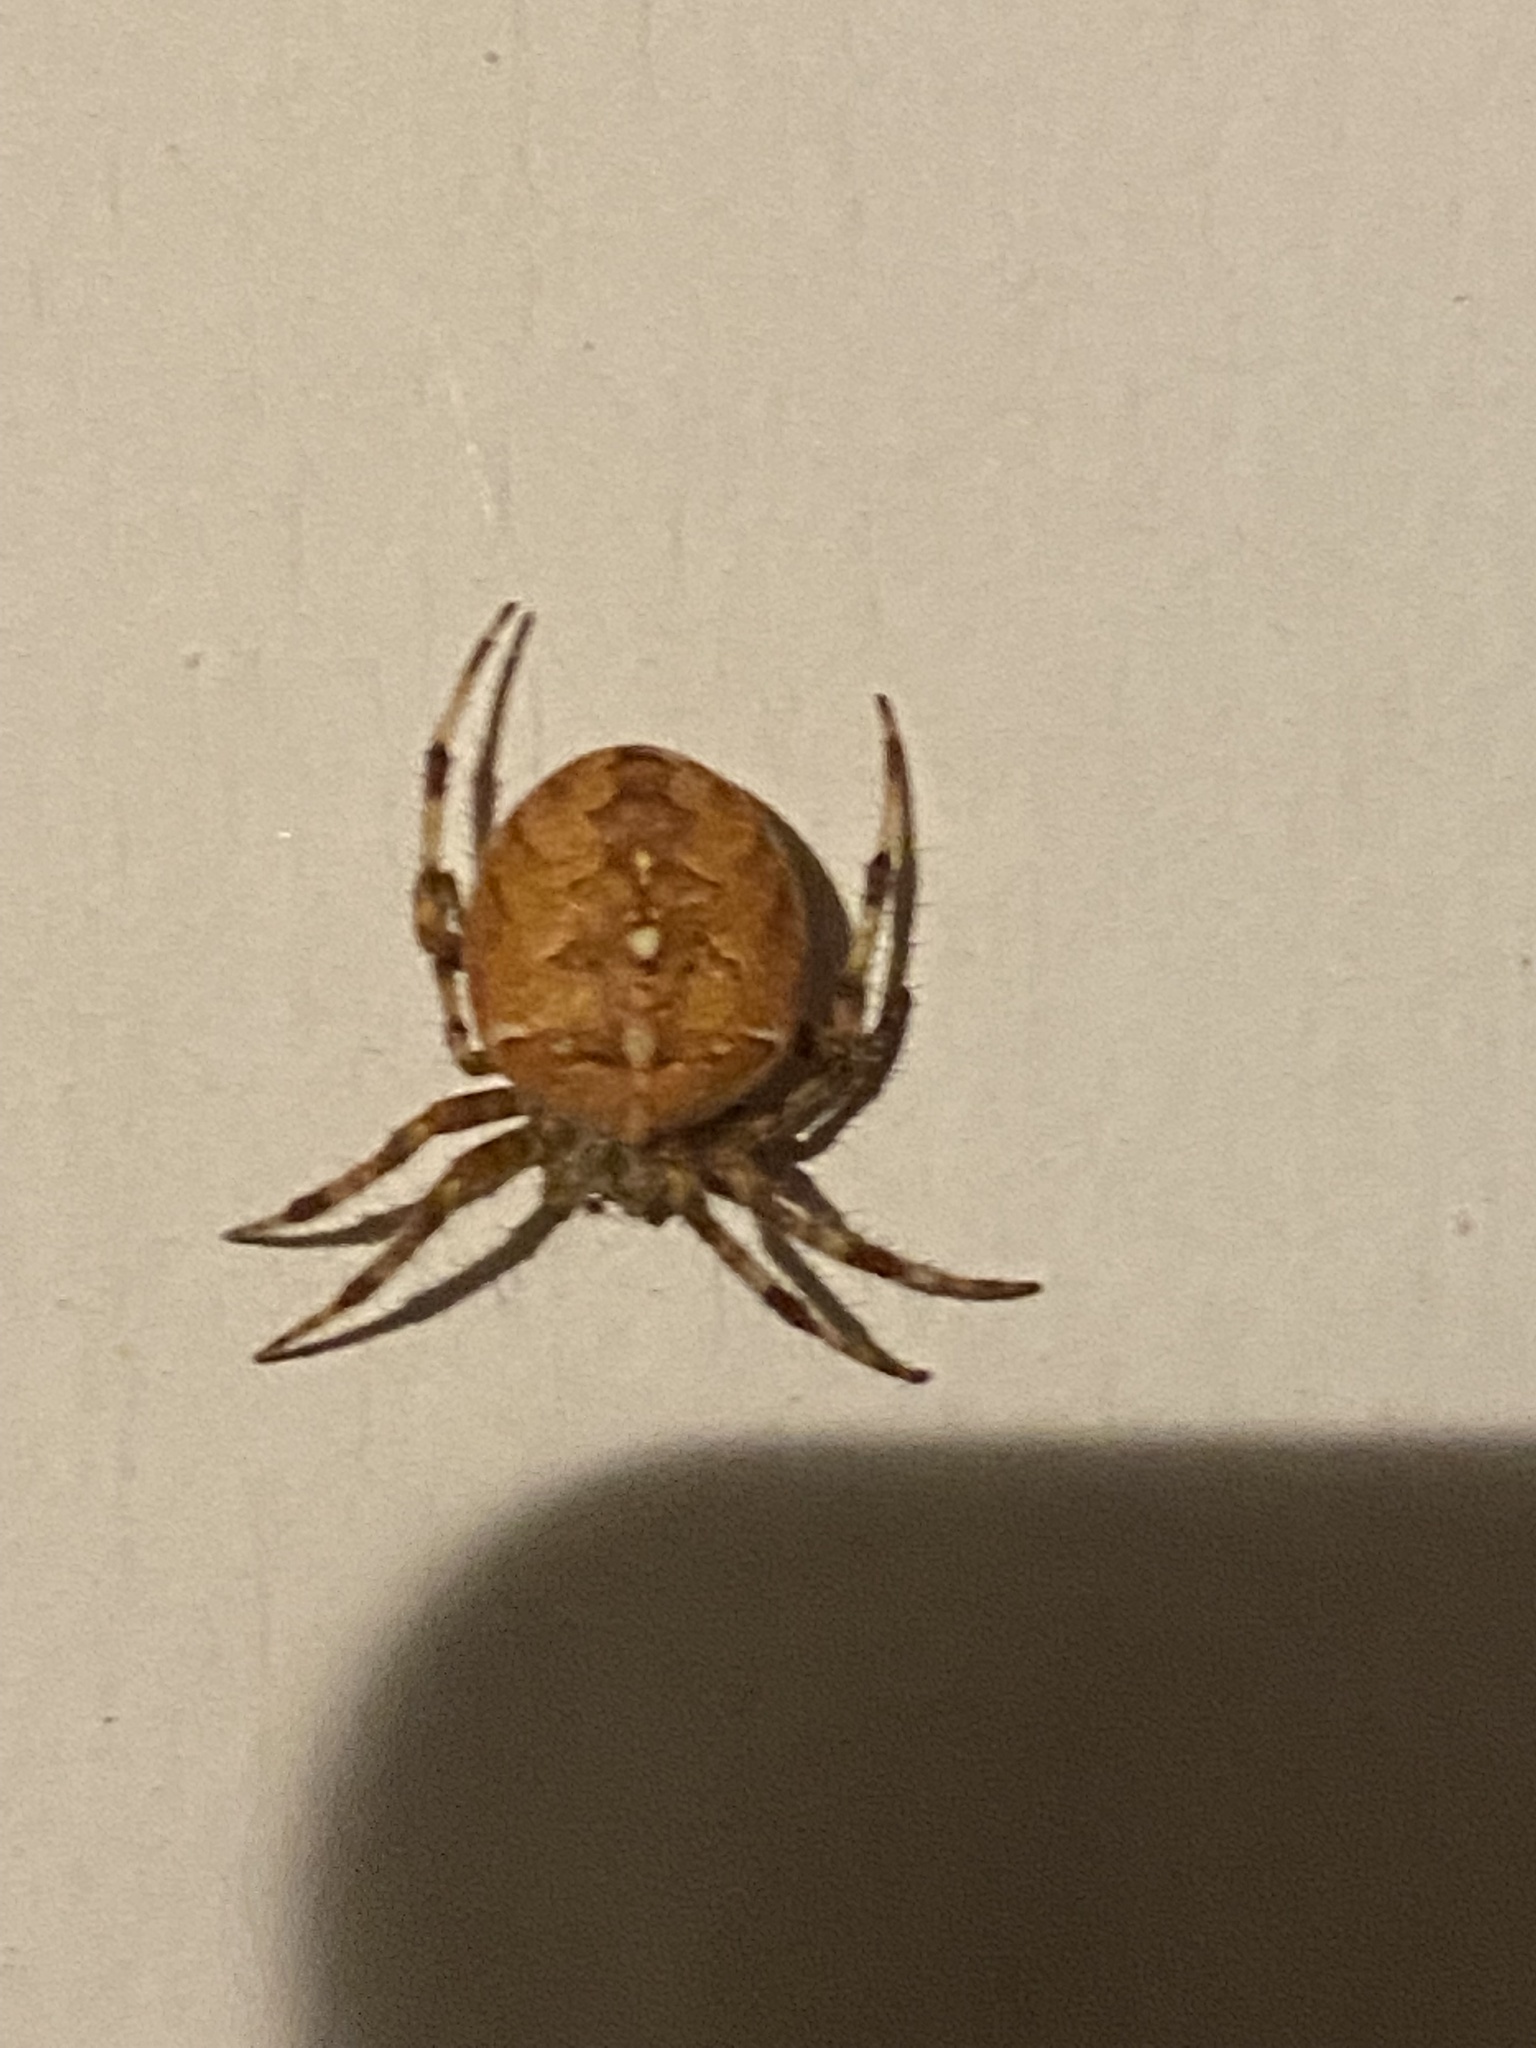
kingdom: Animalia
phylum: Arthropoda
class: Arachnida
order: Araneae
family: Araneidae
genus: Araneus
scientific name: Araneus diadematus
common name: Cross orbweaver
